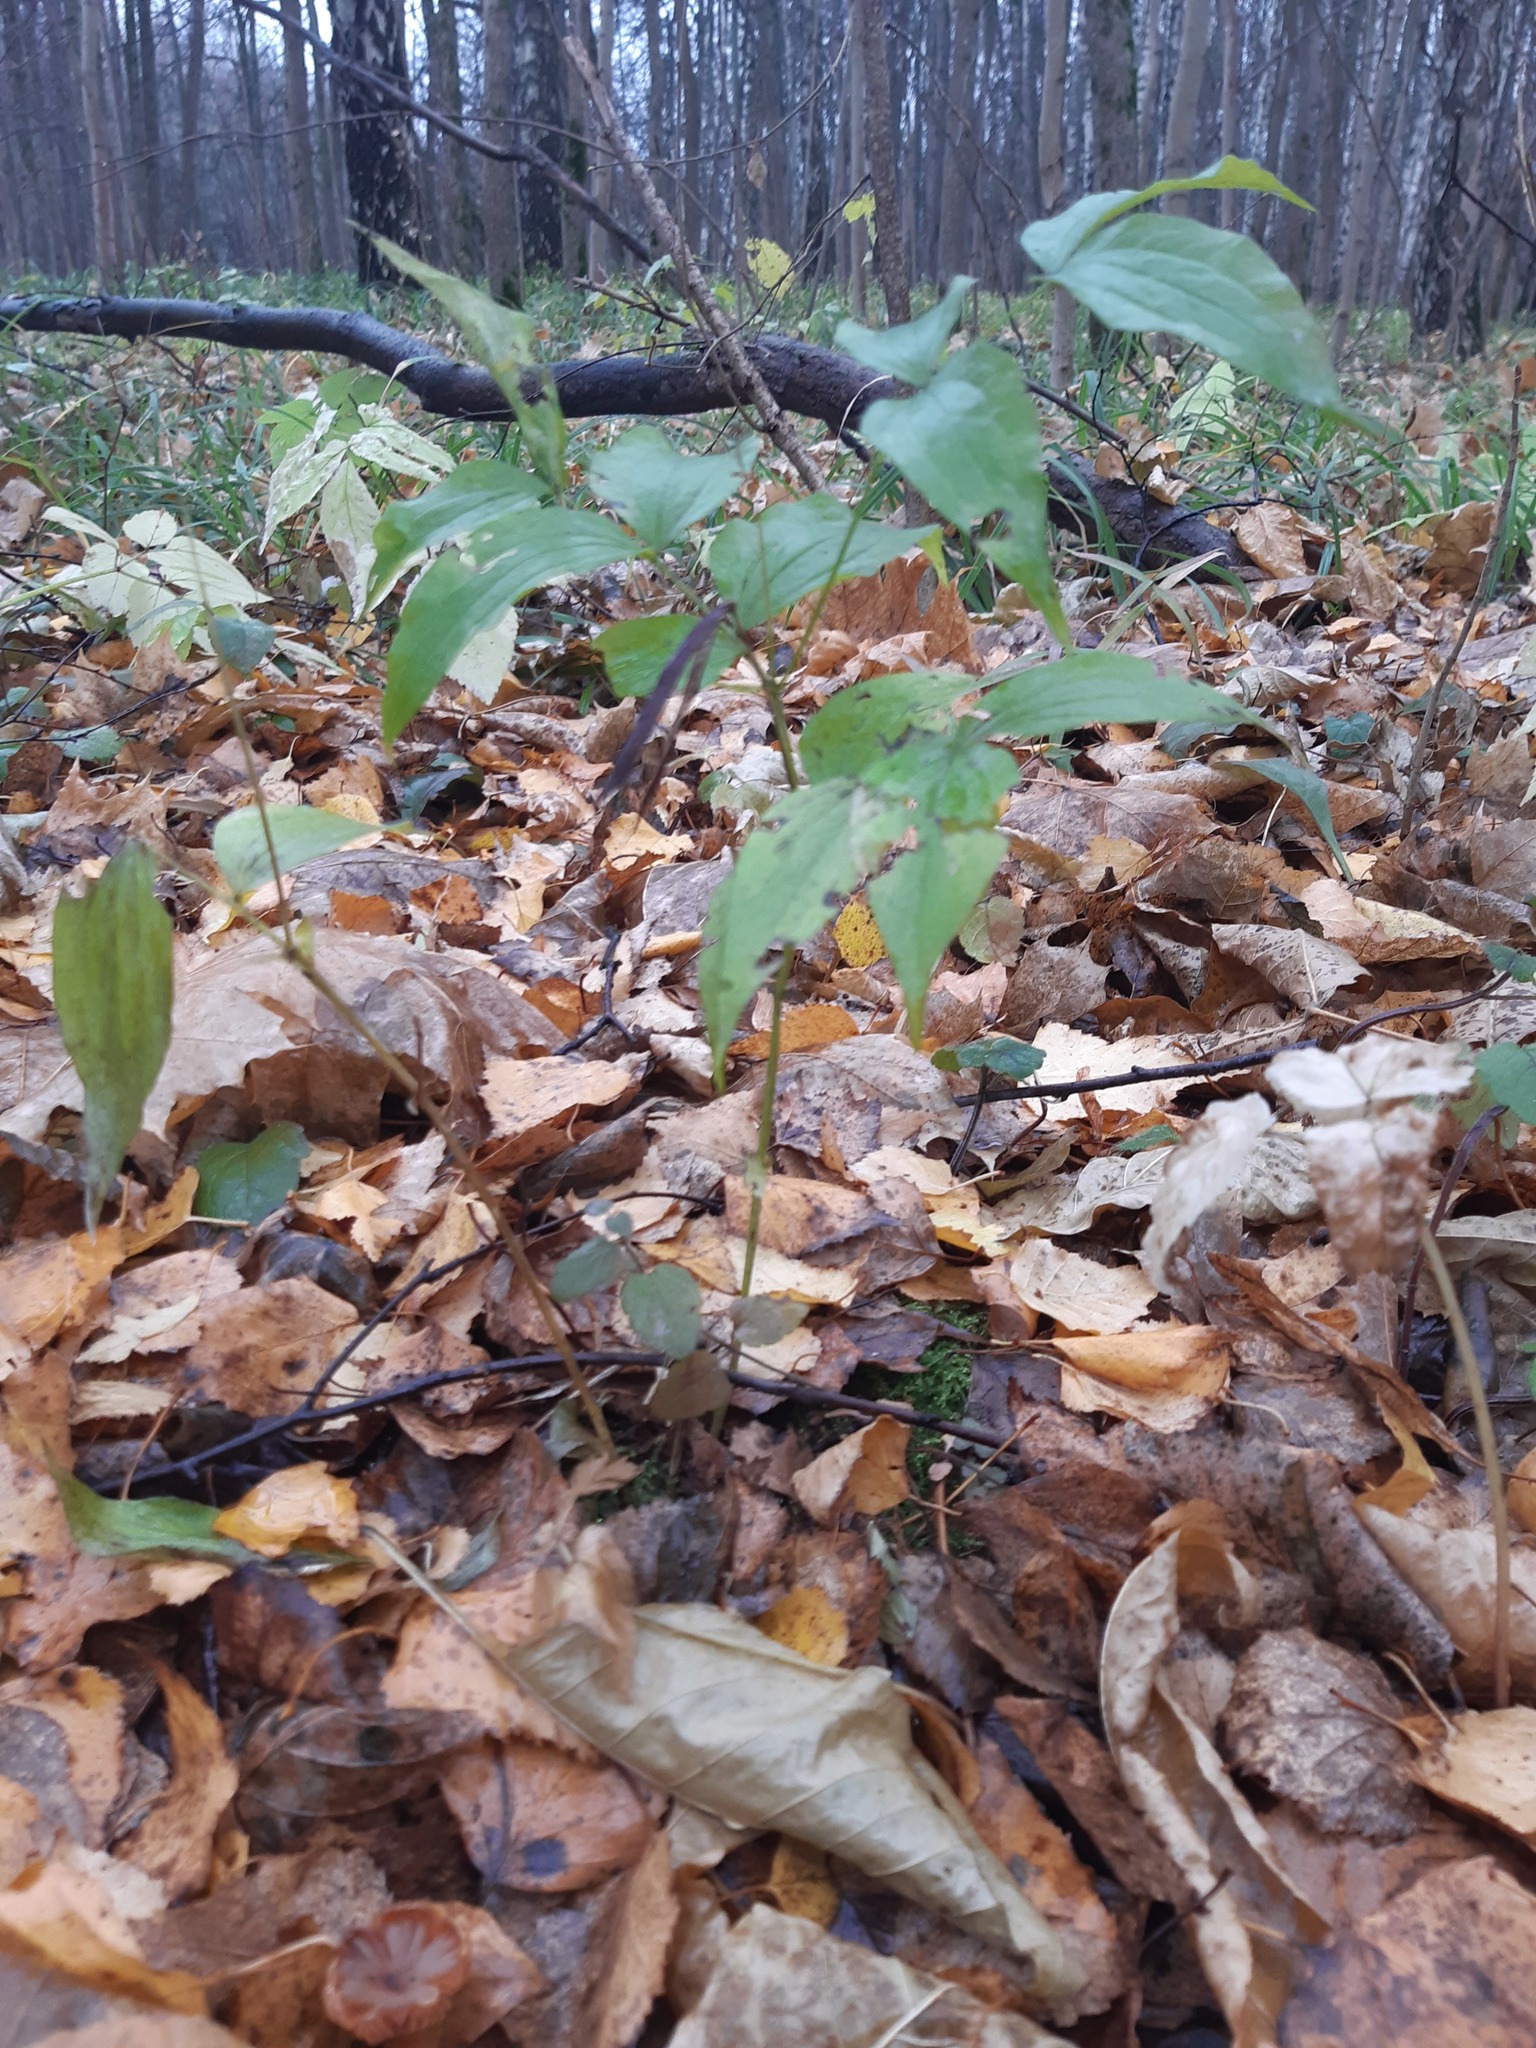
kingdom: Plantae
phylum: Tracheophyta
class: Magnoliopsida
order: Fabales
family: Fabaceae
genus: Lathyrus
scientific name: Lathyrus vernus
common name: Spring pea
